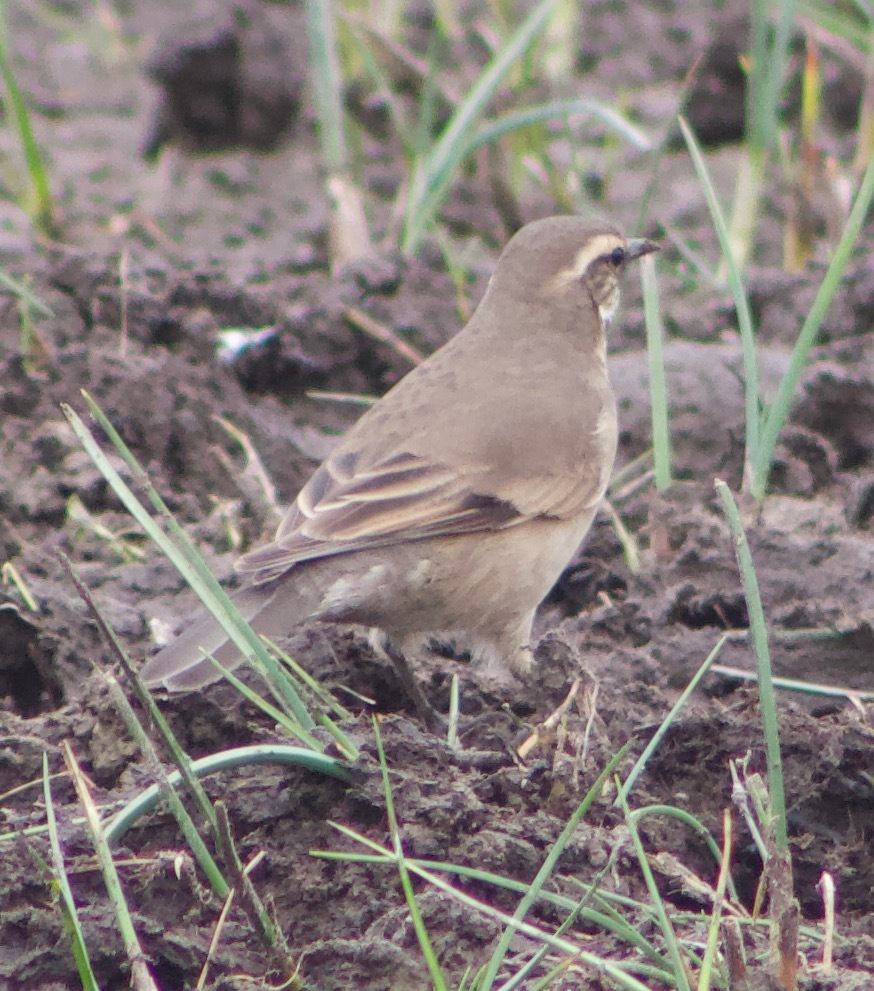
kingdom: Animalia
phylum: Chordata
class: Aves
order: Passeriformes
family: Furnariidae
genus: Cinclodes
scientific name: Cinclodes fuscus
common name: Buff-winged cinclodes
